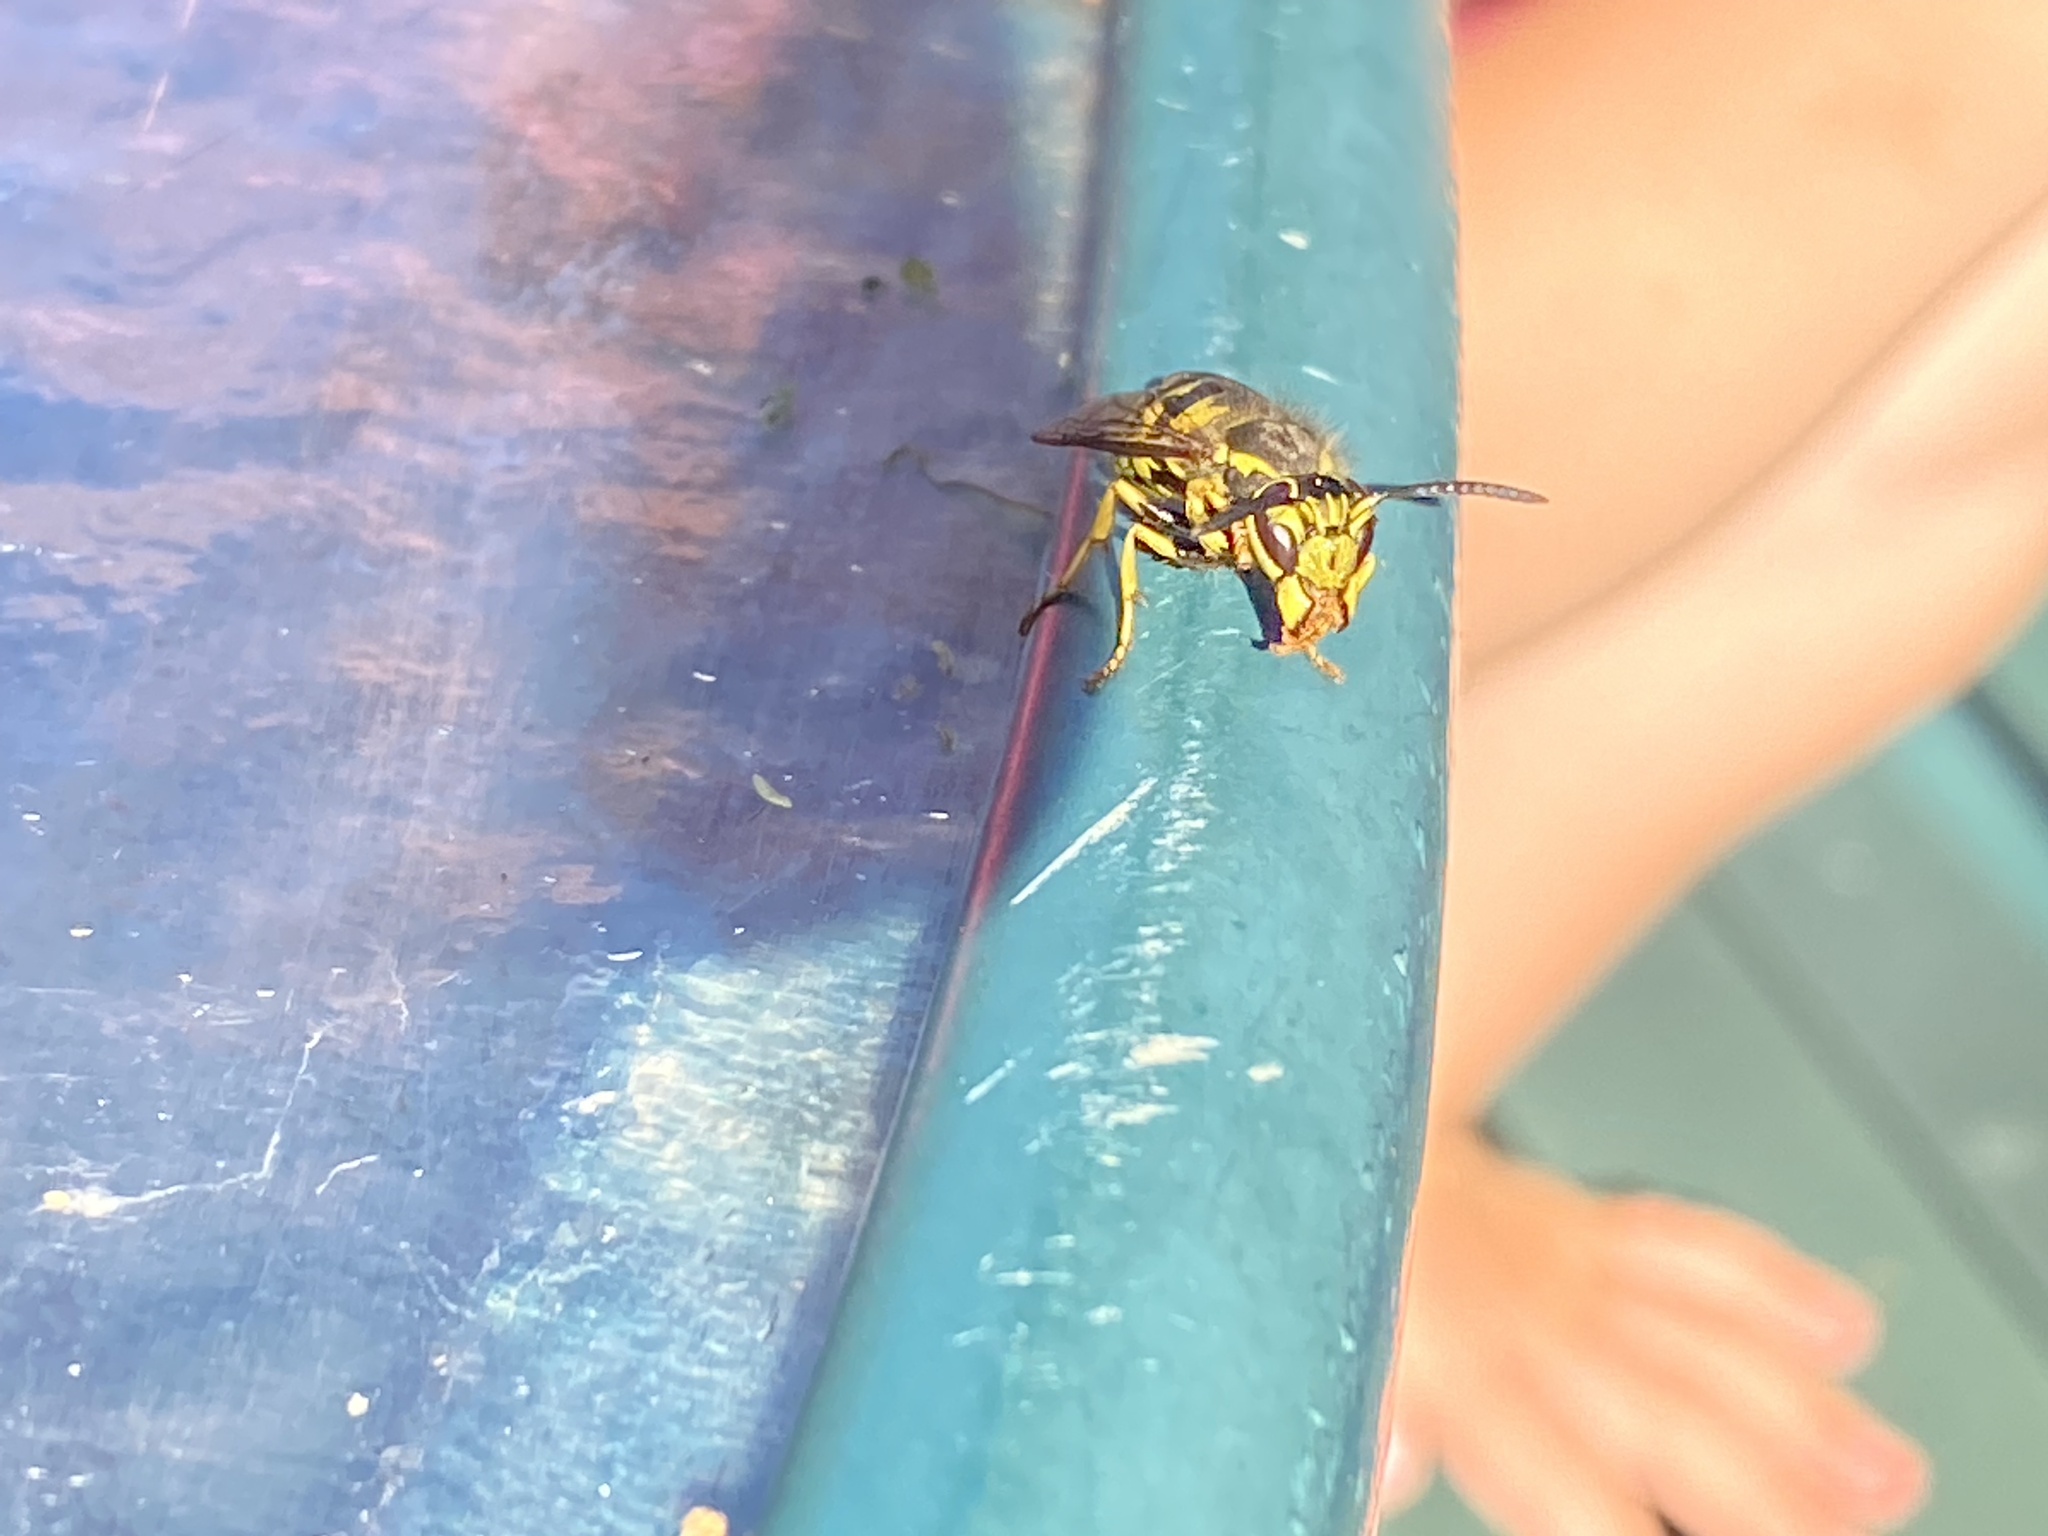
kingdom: Animalia
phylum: Arthropoda
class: Insecta
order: Hymenoptera
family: Vespidae
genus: Vespula
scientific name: Vespula pensylvanica
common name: Western yellowjacket
